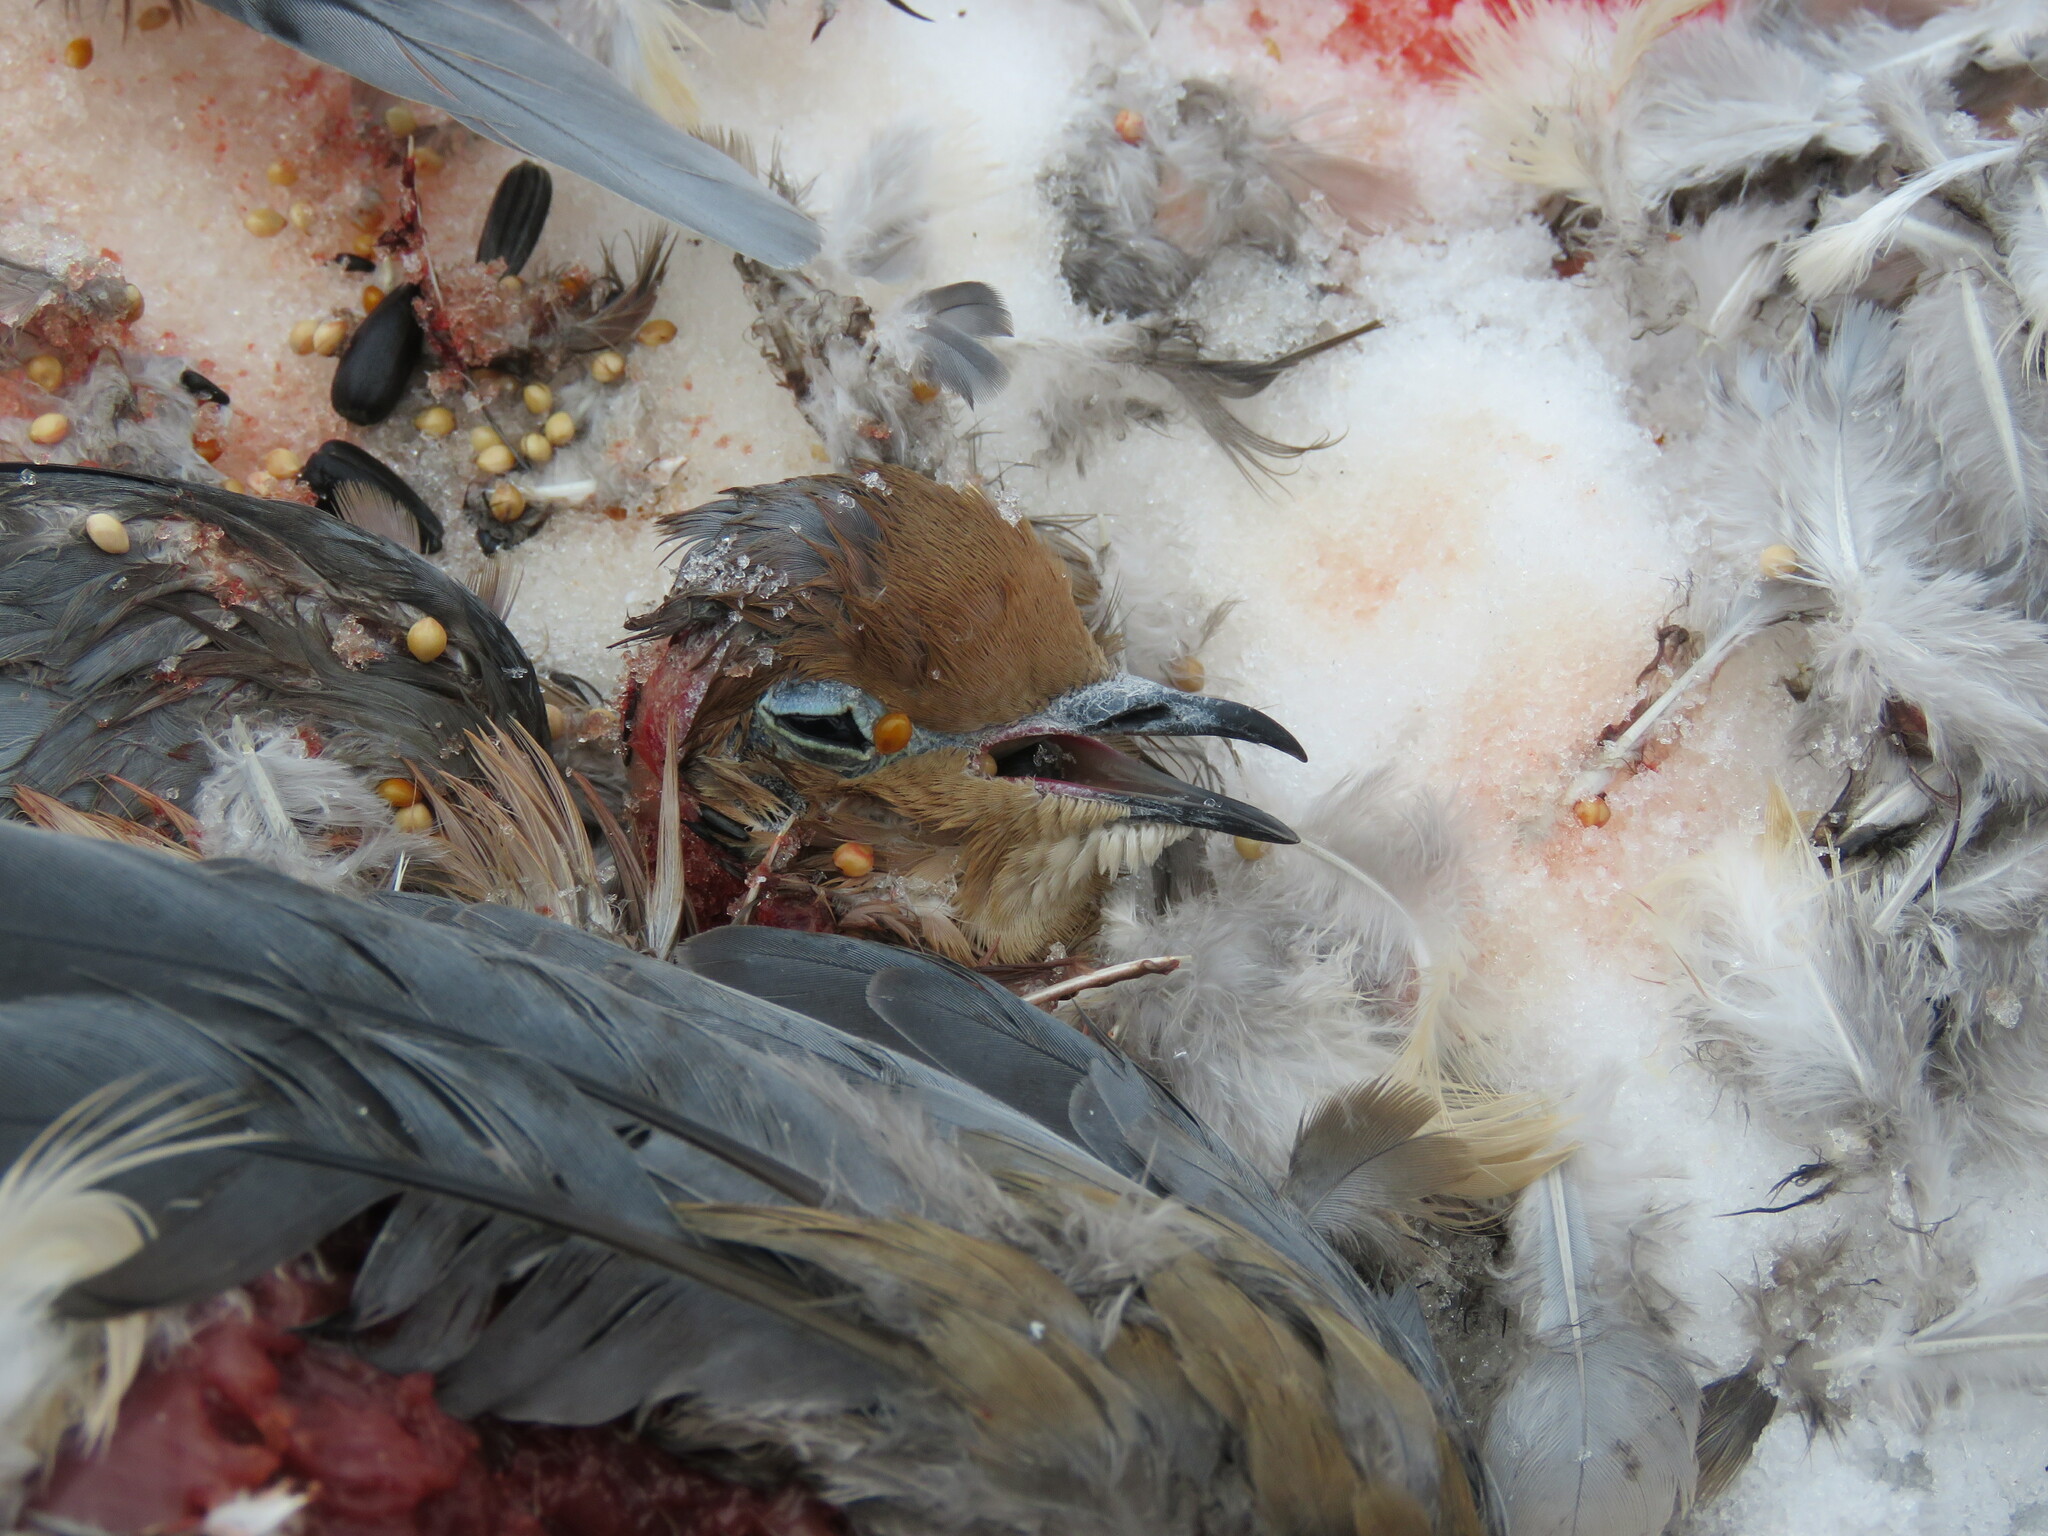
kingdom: Animalia
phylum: Chordata
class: Aves
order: Columbiformes
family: Columbidae
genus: Zenaida
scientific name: Zenaida macroura
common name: Mourning dove
